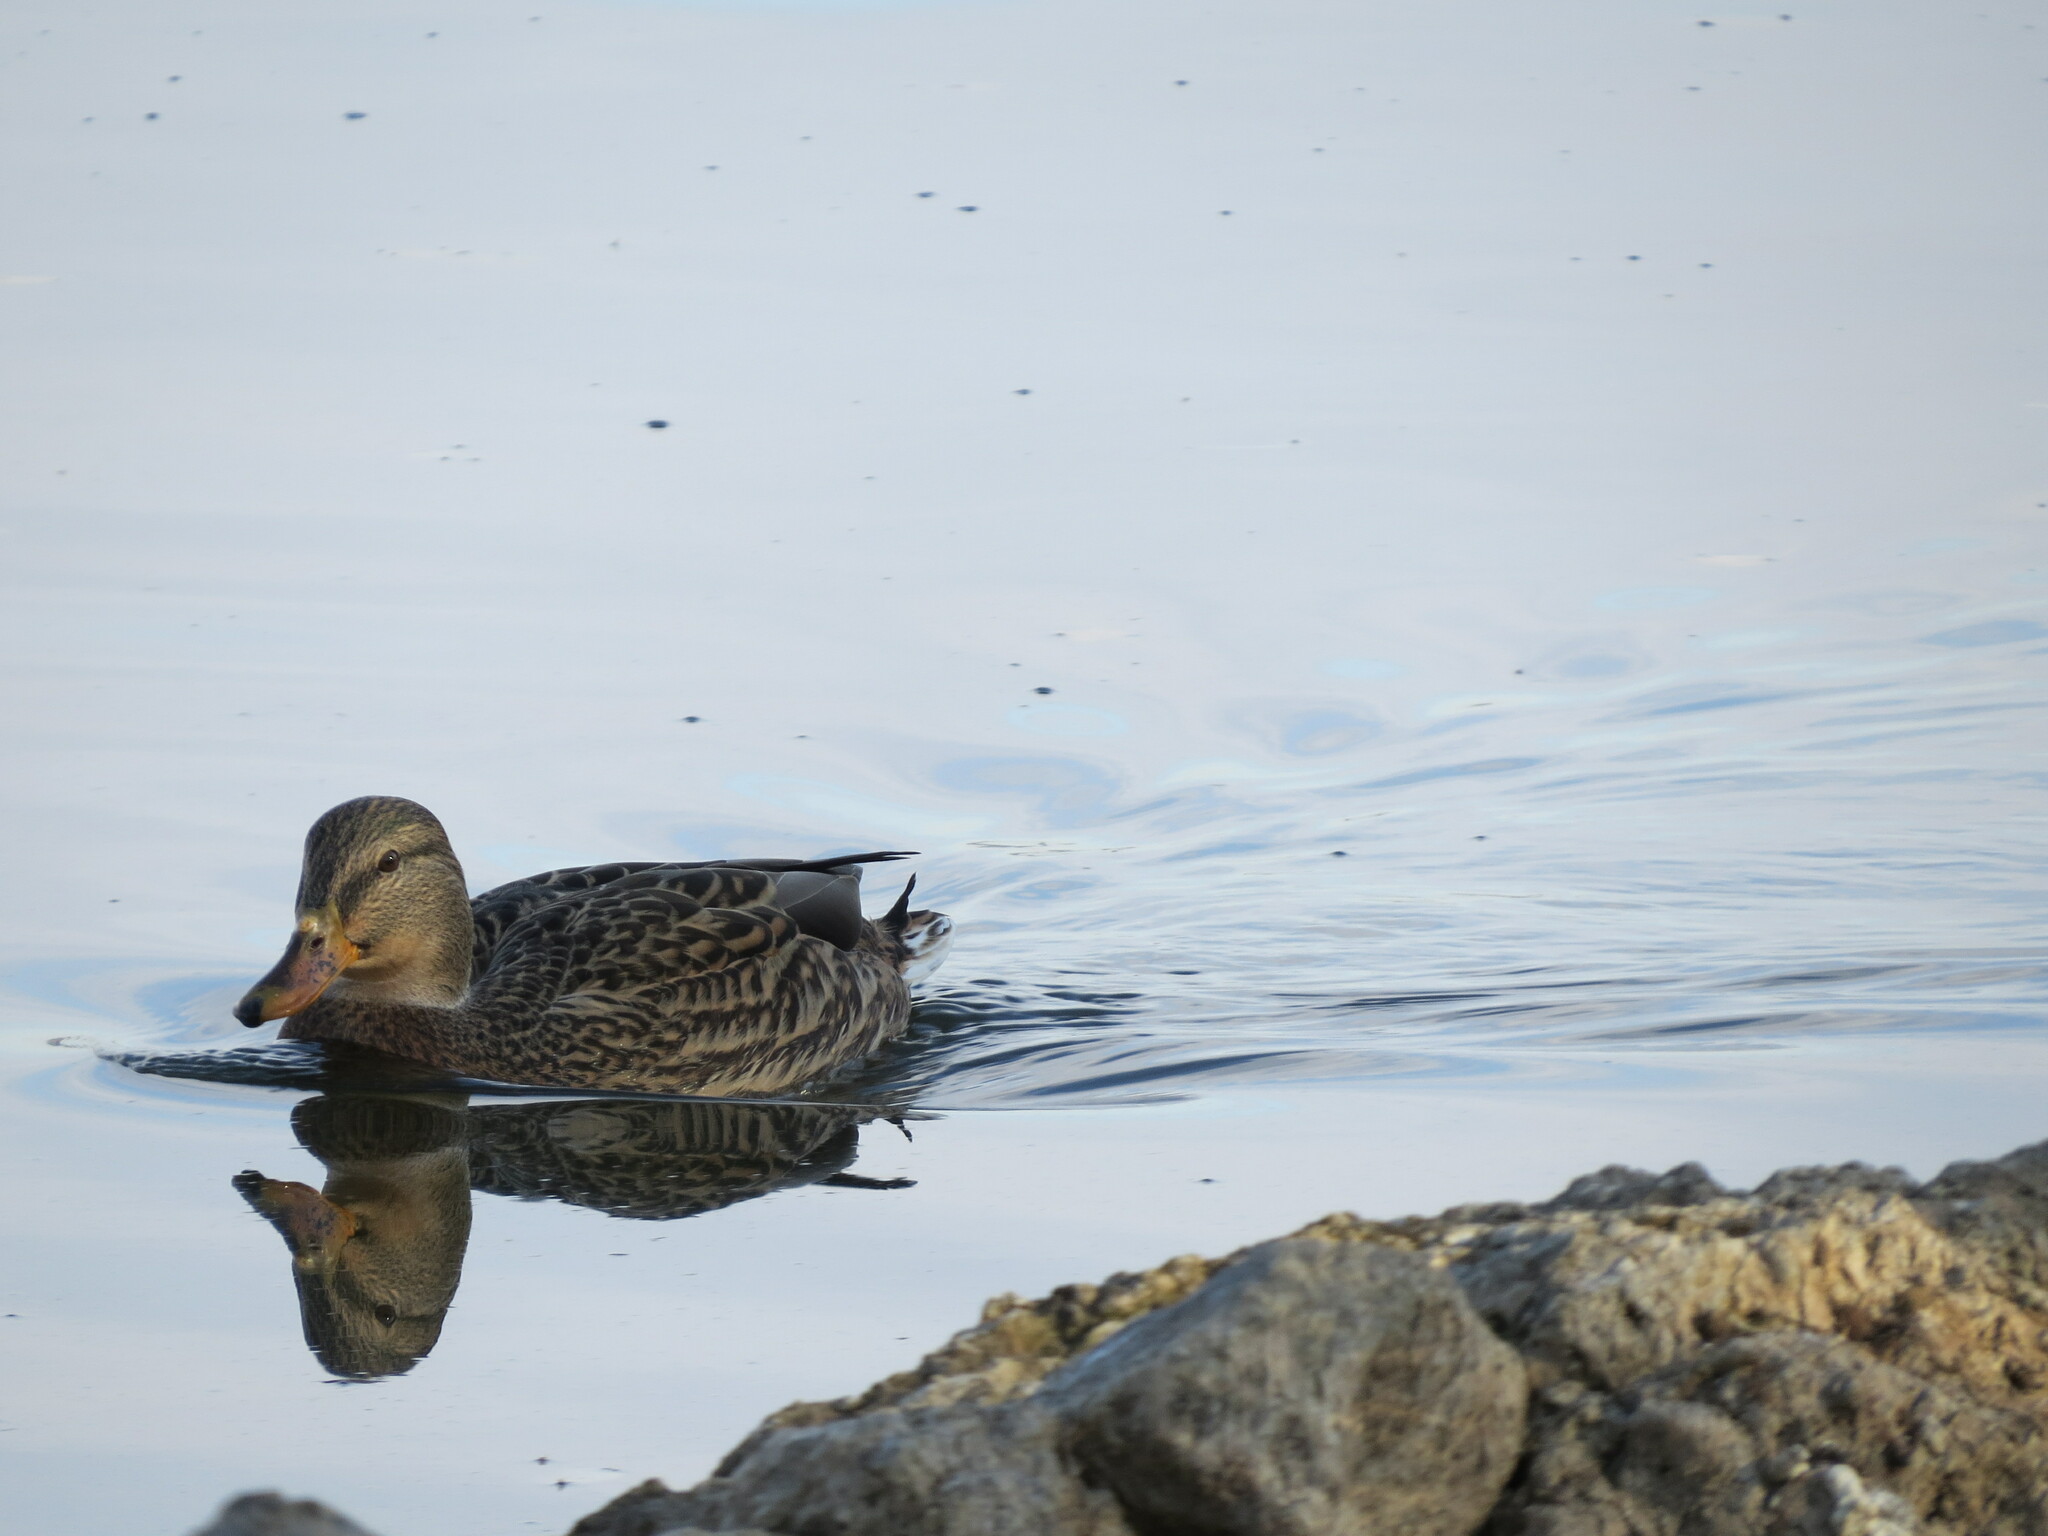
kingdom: Animalia
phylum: Chordata
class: Aves
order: Anseriformes
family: Anatidae
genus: Anas
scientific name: Anas platyrhynchos
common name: Mallard
